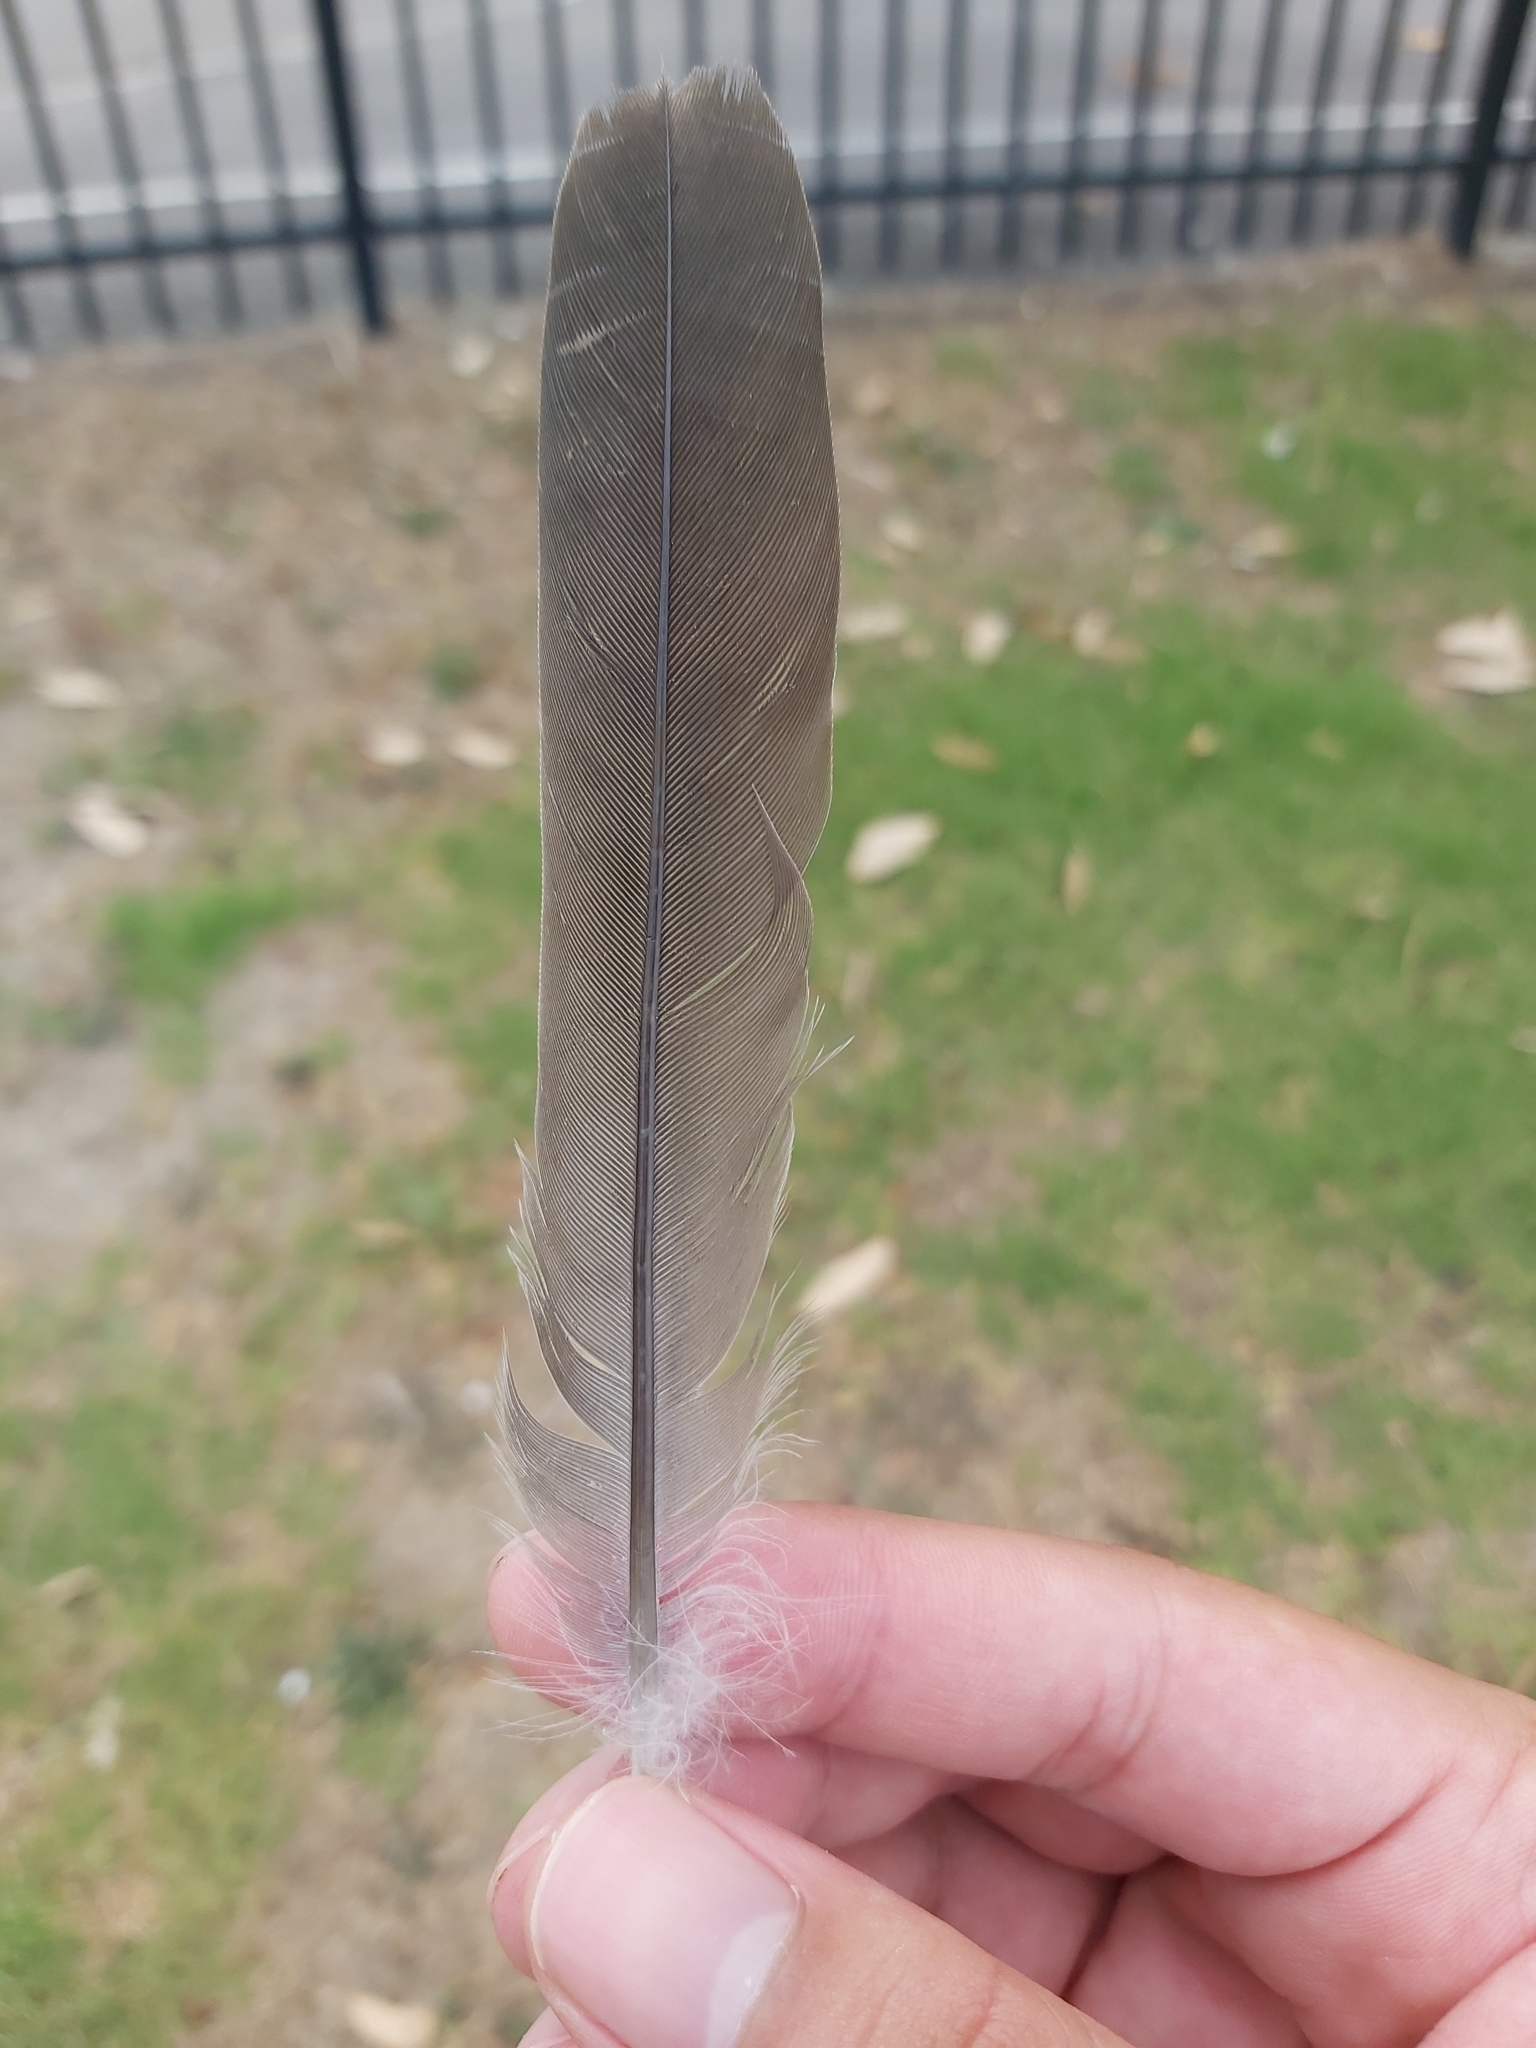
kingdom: Animalia
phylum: Chordata
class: Aves
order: Columbiformes
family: Columbidae
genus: Ocyphaps
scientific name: Ocyphaps lophotes
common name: Crested pigeon
